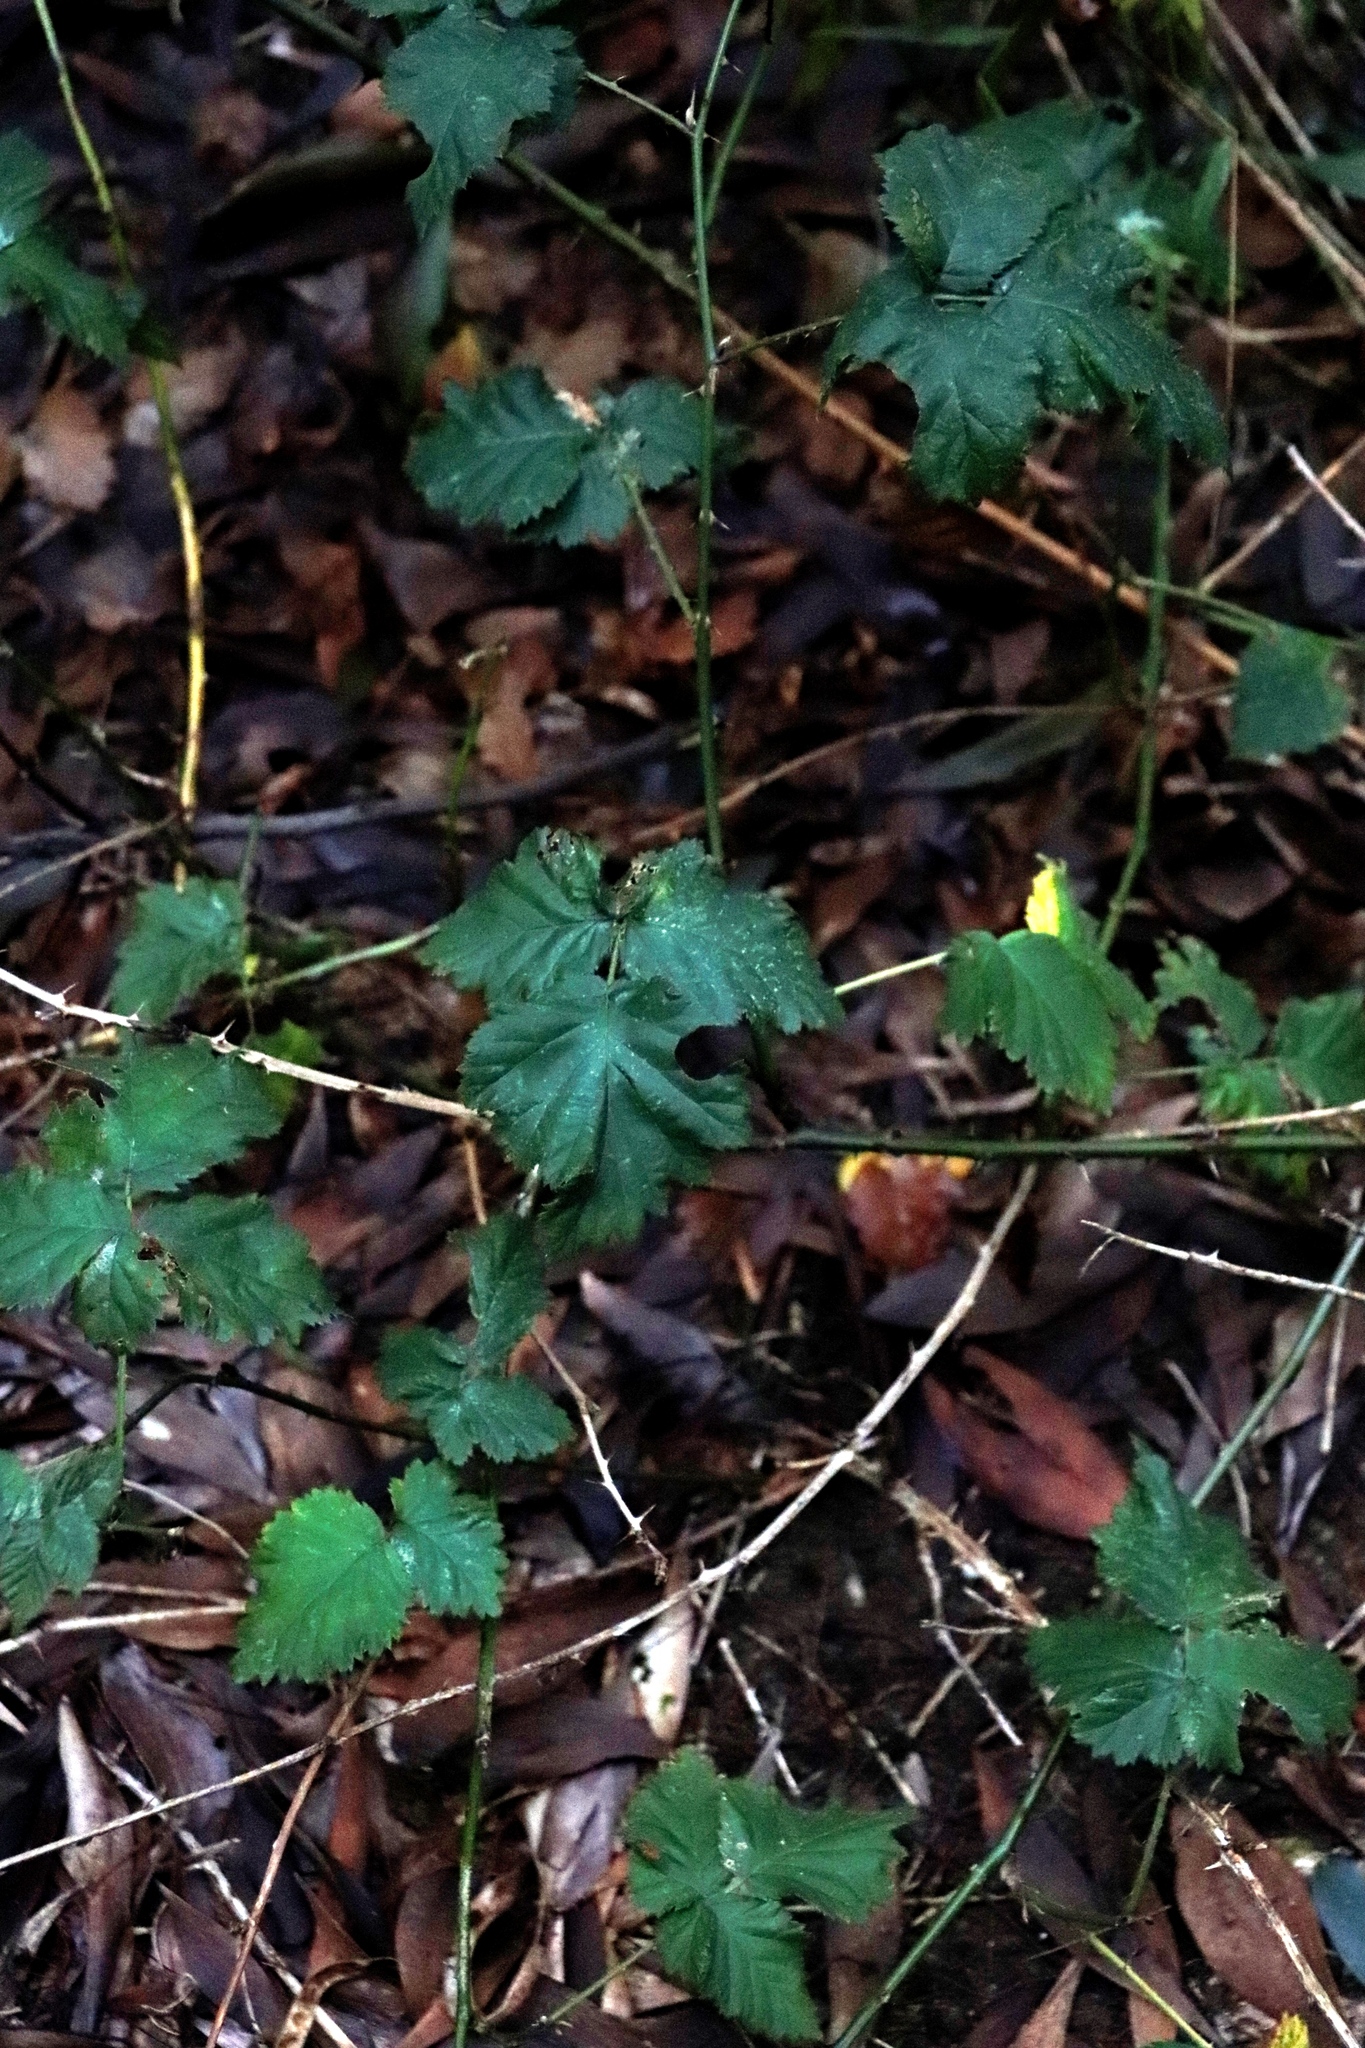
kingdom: Plantae
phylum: Tracheophyta
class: Magnoliopsida
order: Rosales
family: Rosaceae
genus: Rubus
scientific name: Rubus affinis
